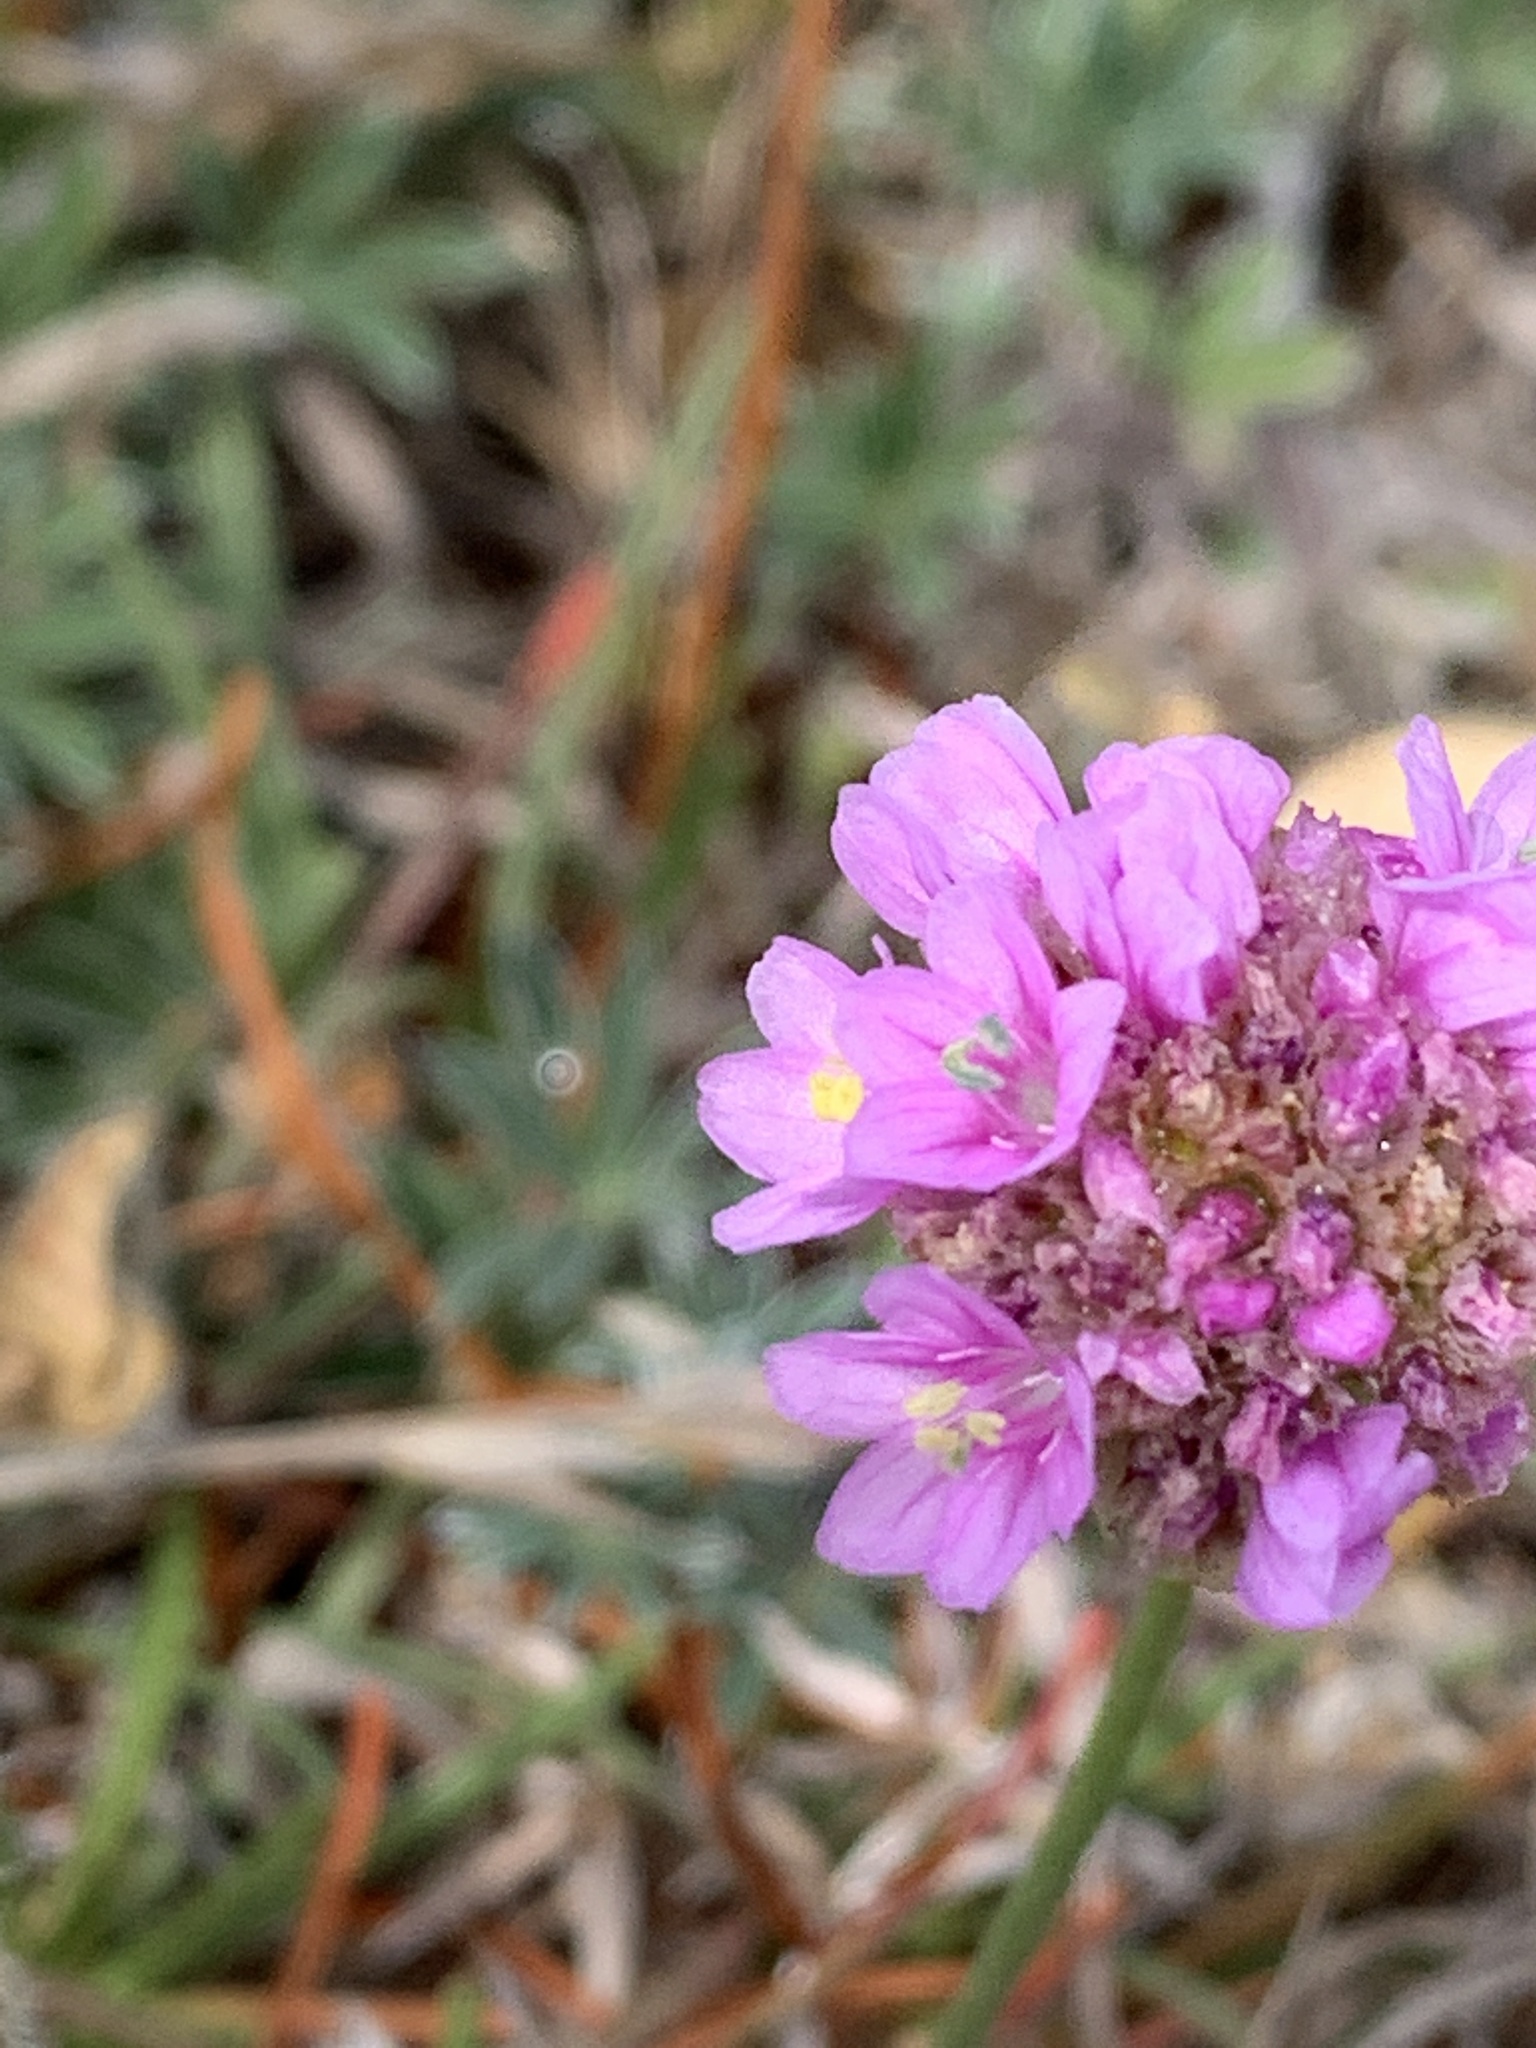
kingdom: Plantae
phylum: Tracheophyta
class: Magnoliopsida
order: Caryophyllales
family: Plumbaginaceae
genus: Armeria
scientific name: Armeria maritima
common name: Thrift
